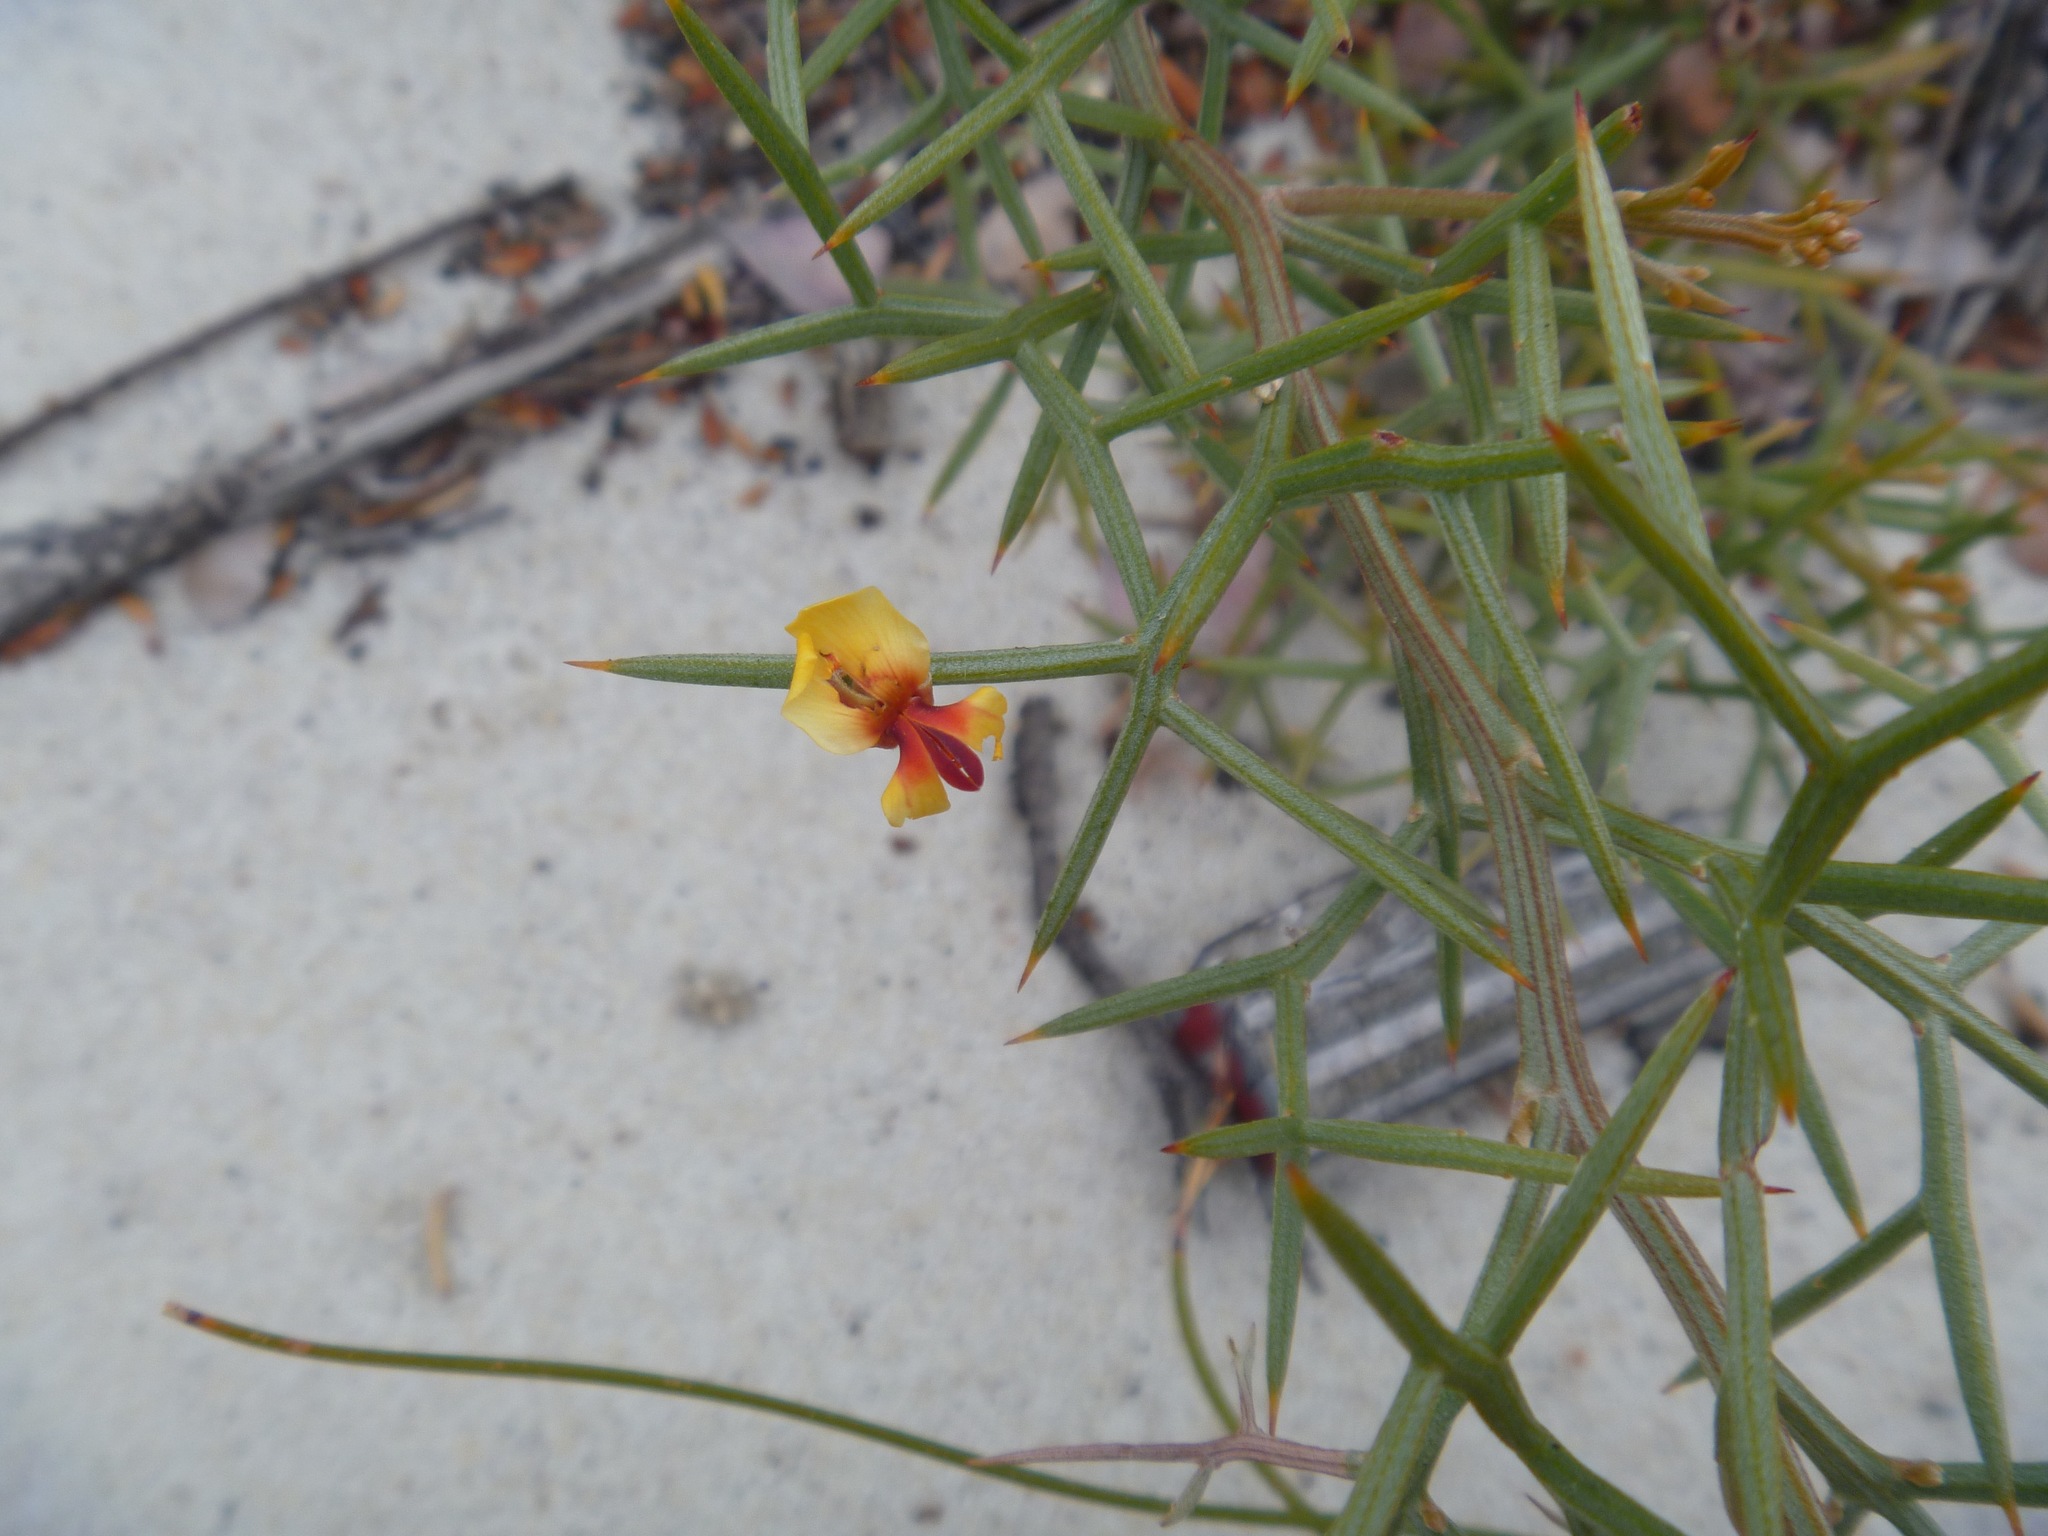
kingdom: Plantae
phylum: Tracheophyta
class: Magnoliopsida
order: Fabales
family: Fabaceae
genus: Jacksonia
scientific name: Jacksonia spinosa
